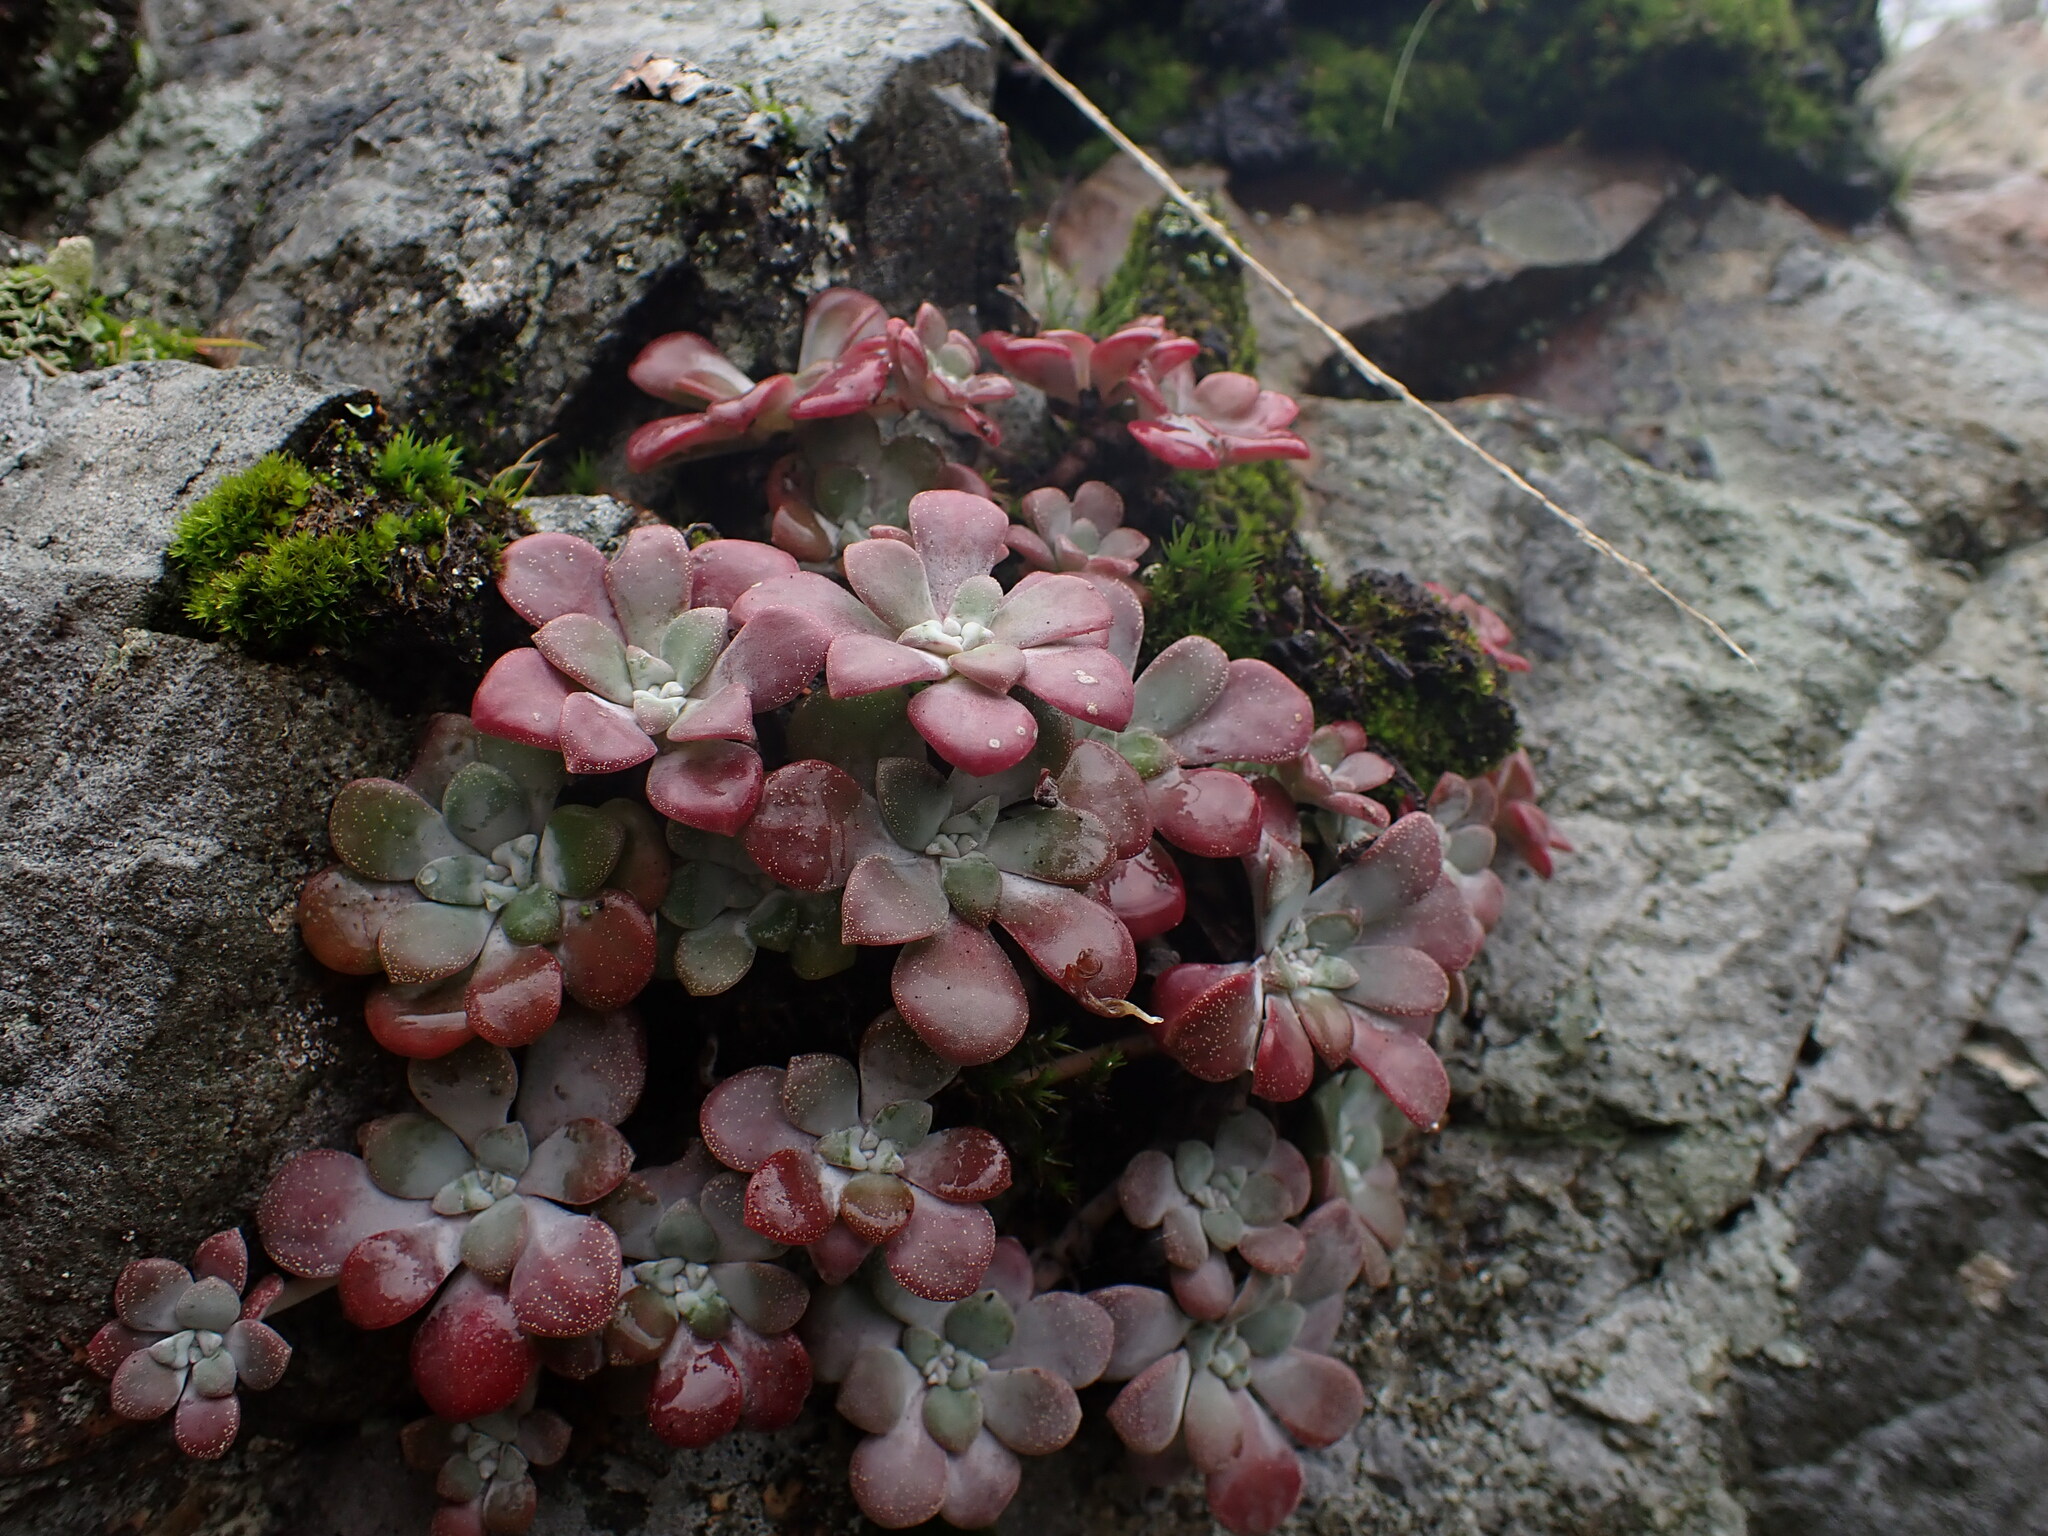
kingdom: Plantae
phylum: Tracheophyta
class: Magnoliopsida
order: Saxifragales
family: Crassulaceae
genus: Sedum
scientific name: Sedum spathulifolium
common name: Colorado stonecrop
